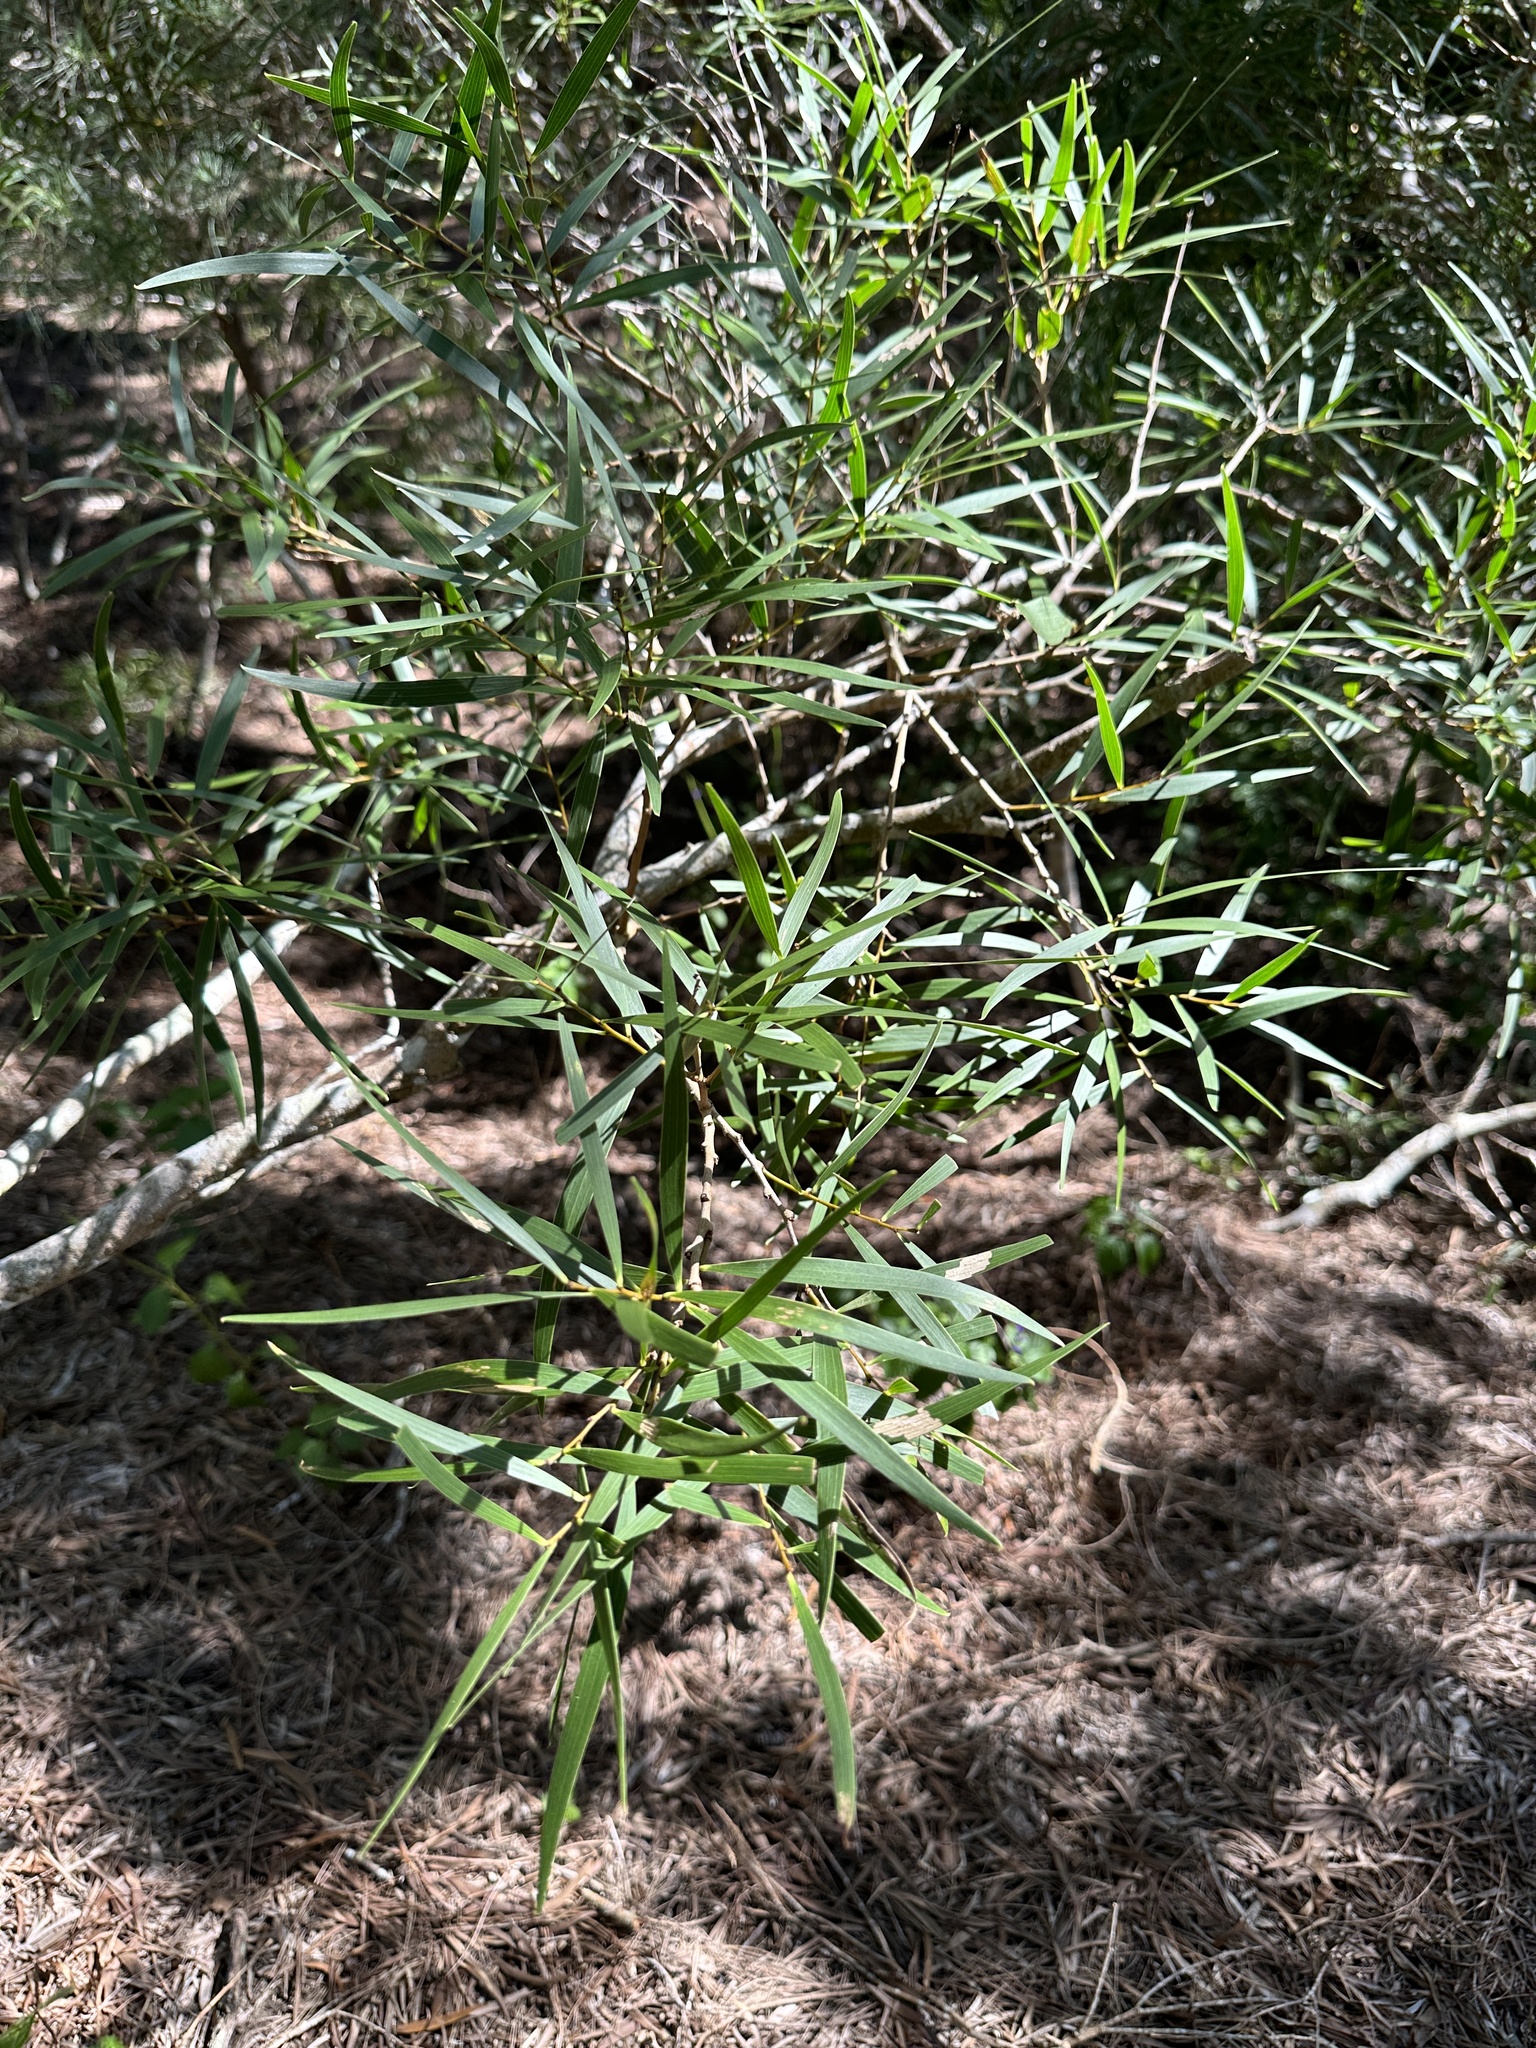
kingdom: Plantae
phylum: Tracheophyta
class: Magnoliopsida
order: Fabales
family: Fabaceae
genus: Acacia
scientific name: Acacia confusa
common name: Formosan koa
